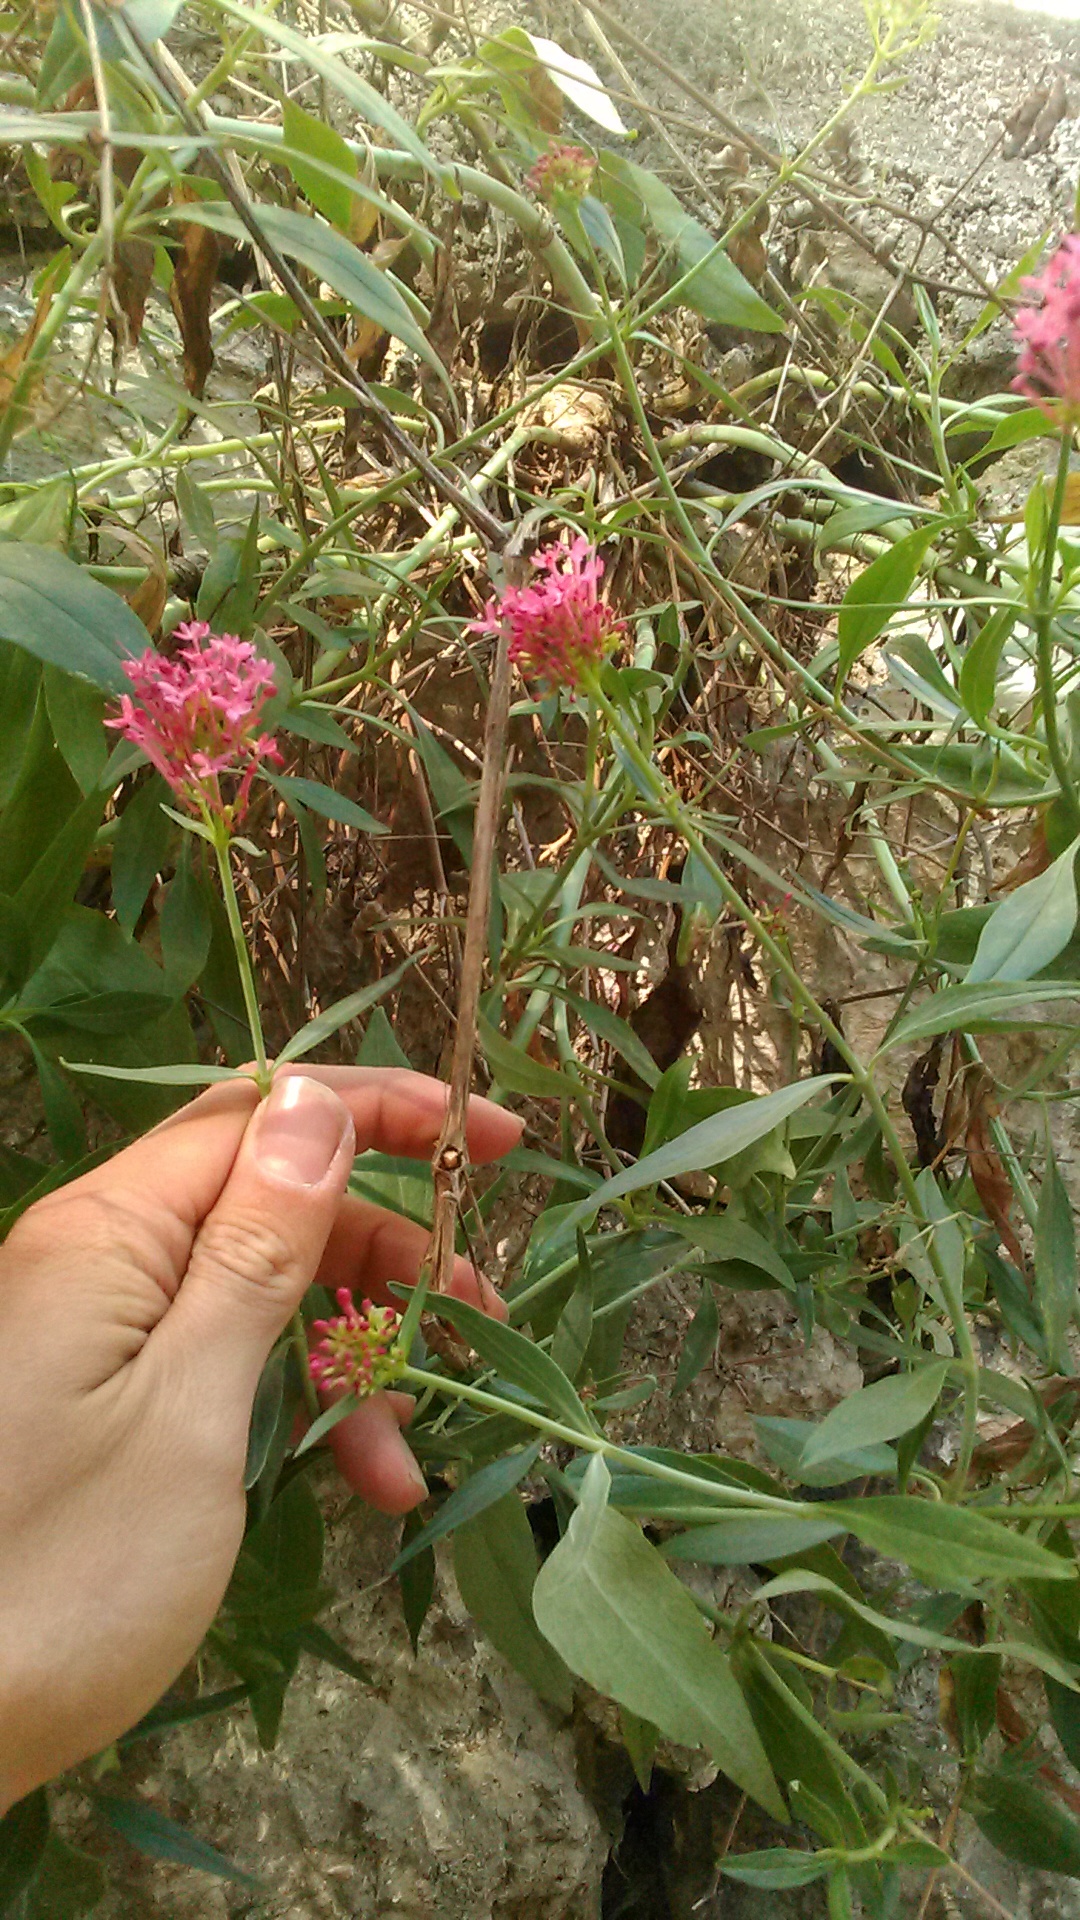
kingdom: Plantae
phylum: Tracheophyta
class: Magnoliopsida
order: Dipsacales
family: Caprifoliaceae
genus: Centranthus
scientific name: Centranthus ruber
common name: Red valerian
